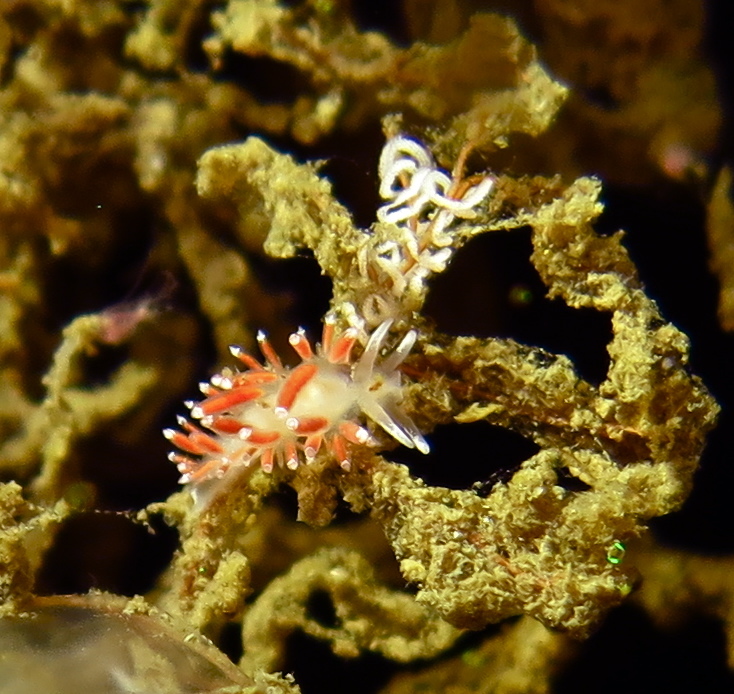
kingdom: Animalia
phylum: Mollusca
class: Gastropoda
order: Nudibranchia
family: Coryphellidae
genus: Coryphella
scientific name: Coryphella gracilis
